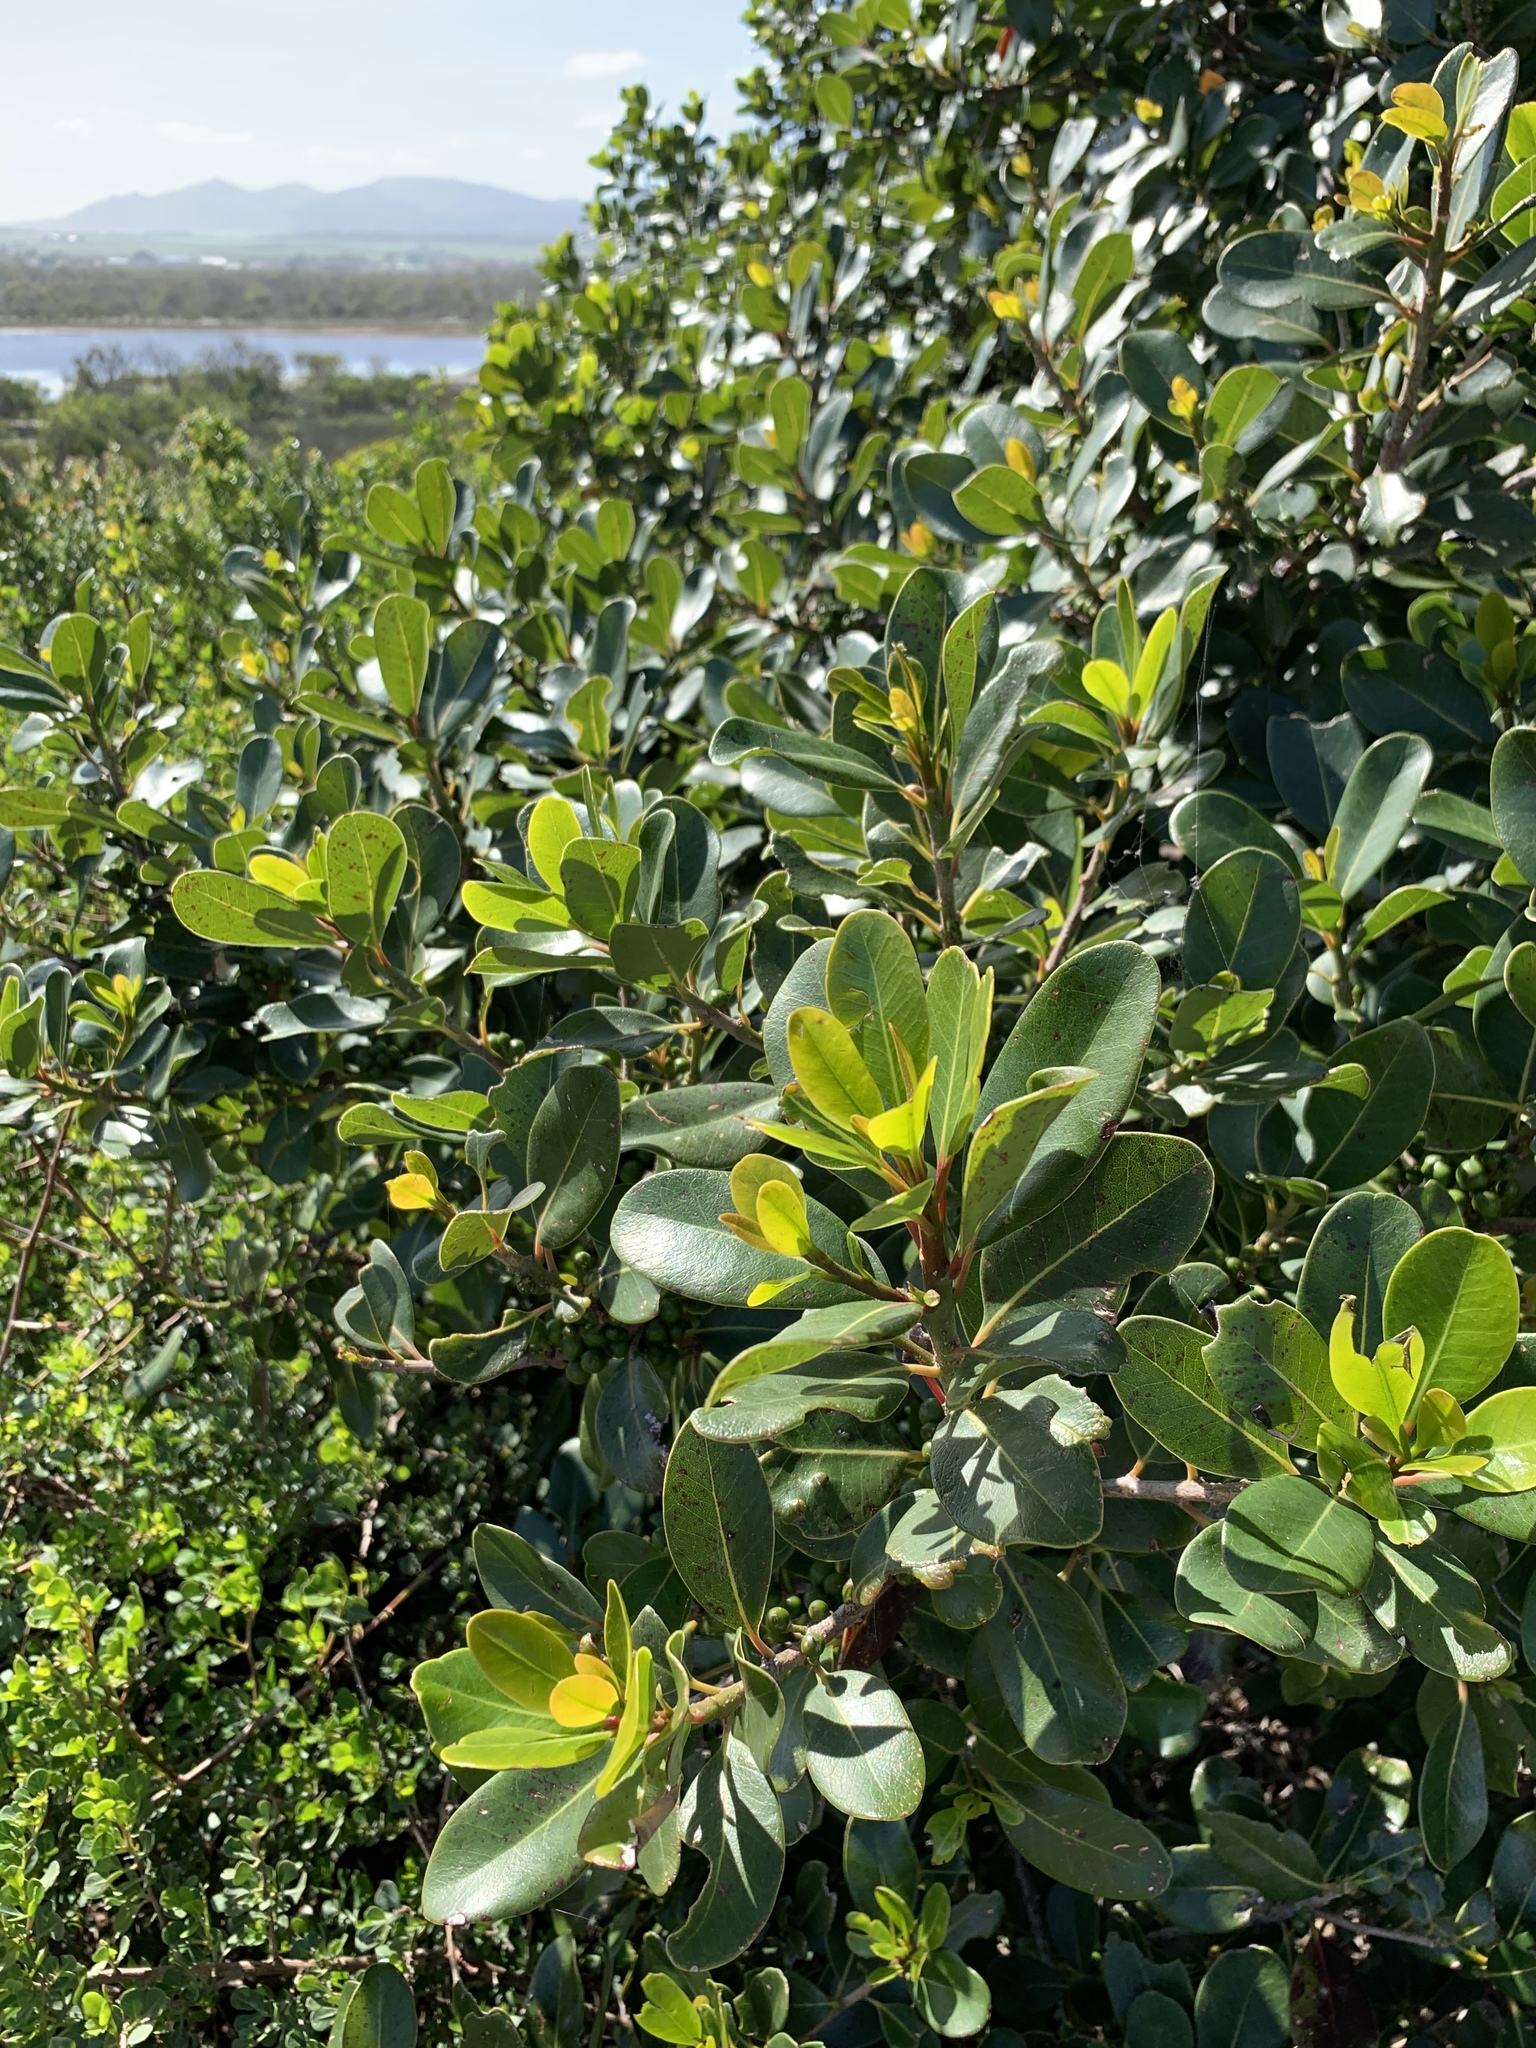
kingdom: Plantae
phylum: Tracheophyta
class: Magnoliopsida
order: Ericales
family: Sapotaceae
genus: Sideroxylon
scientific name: Sideroxylon inerme
